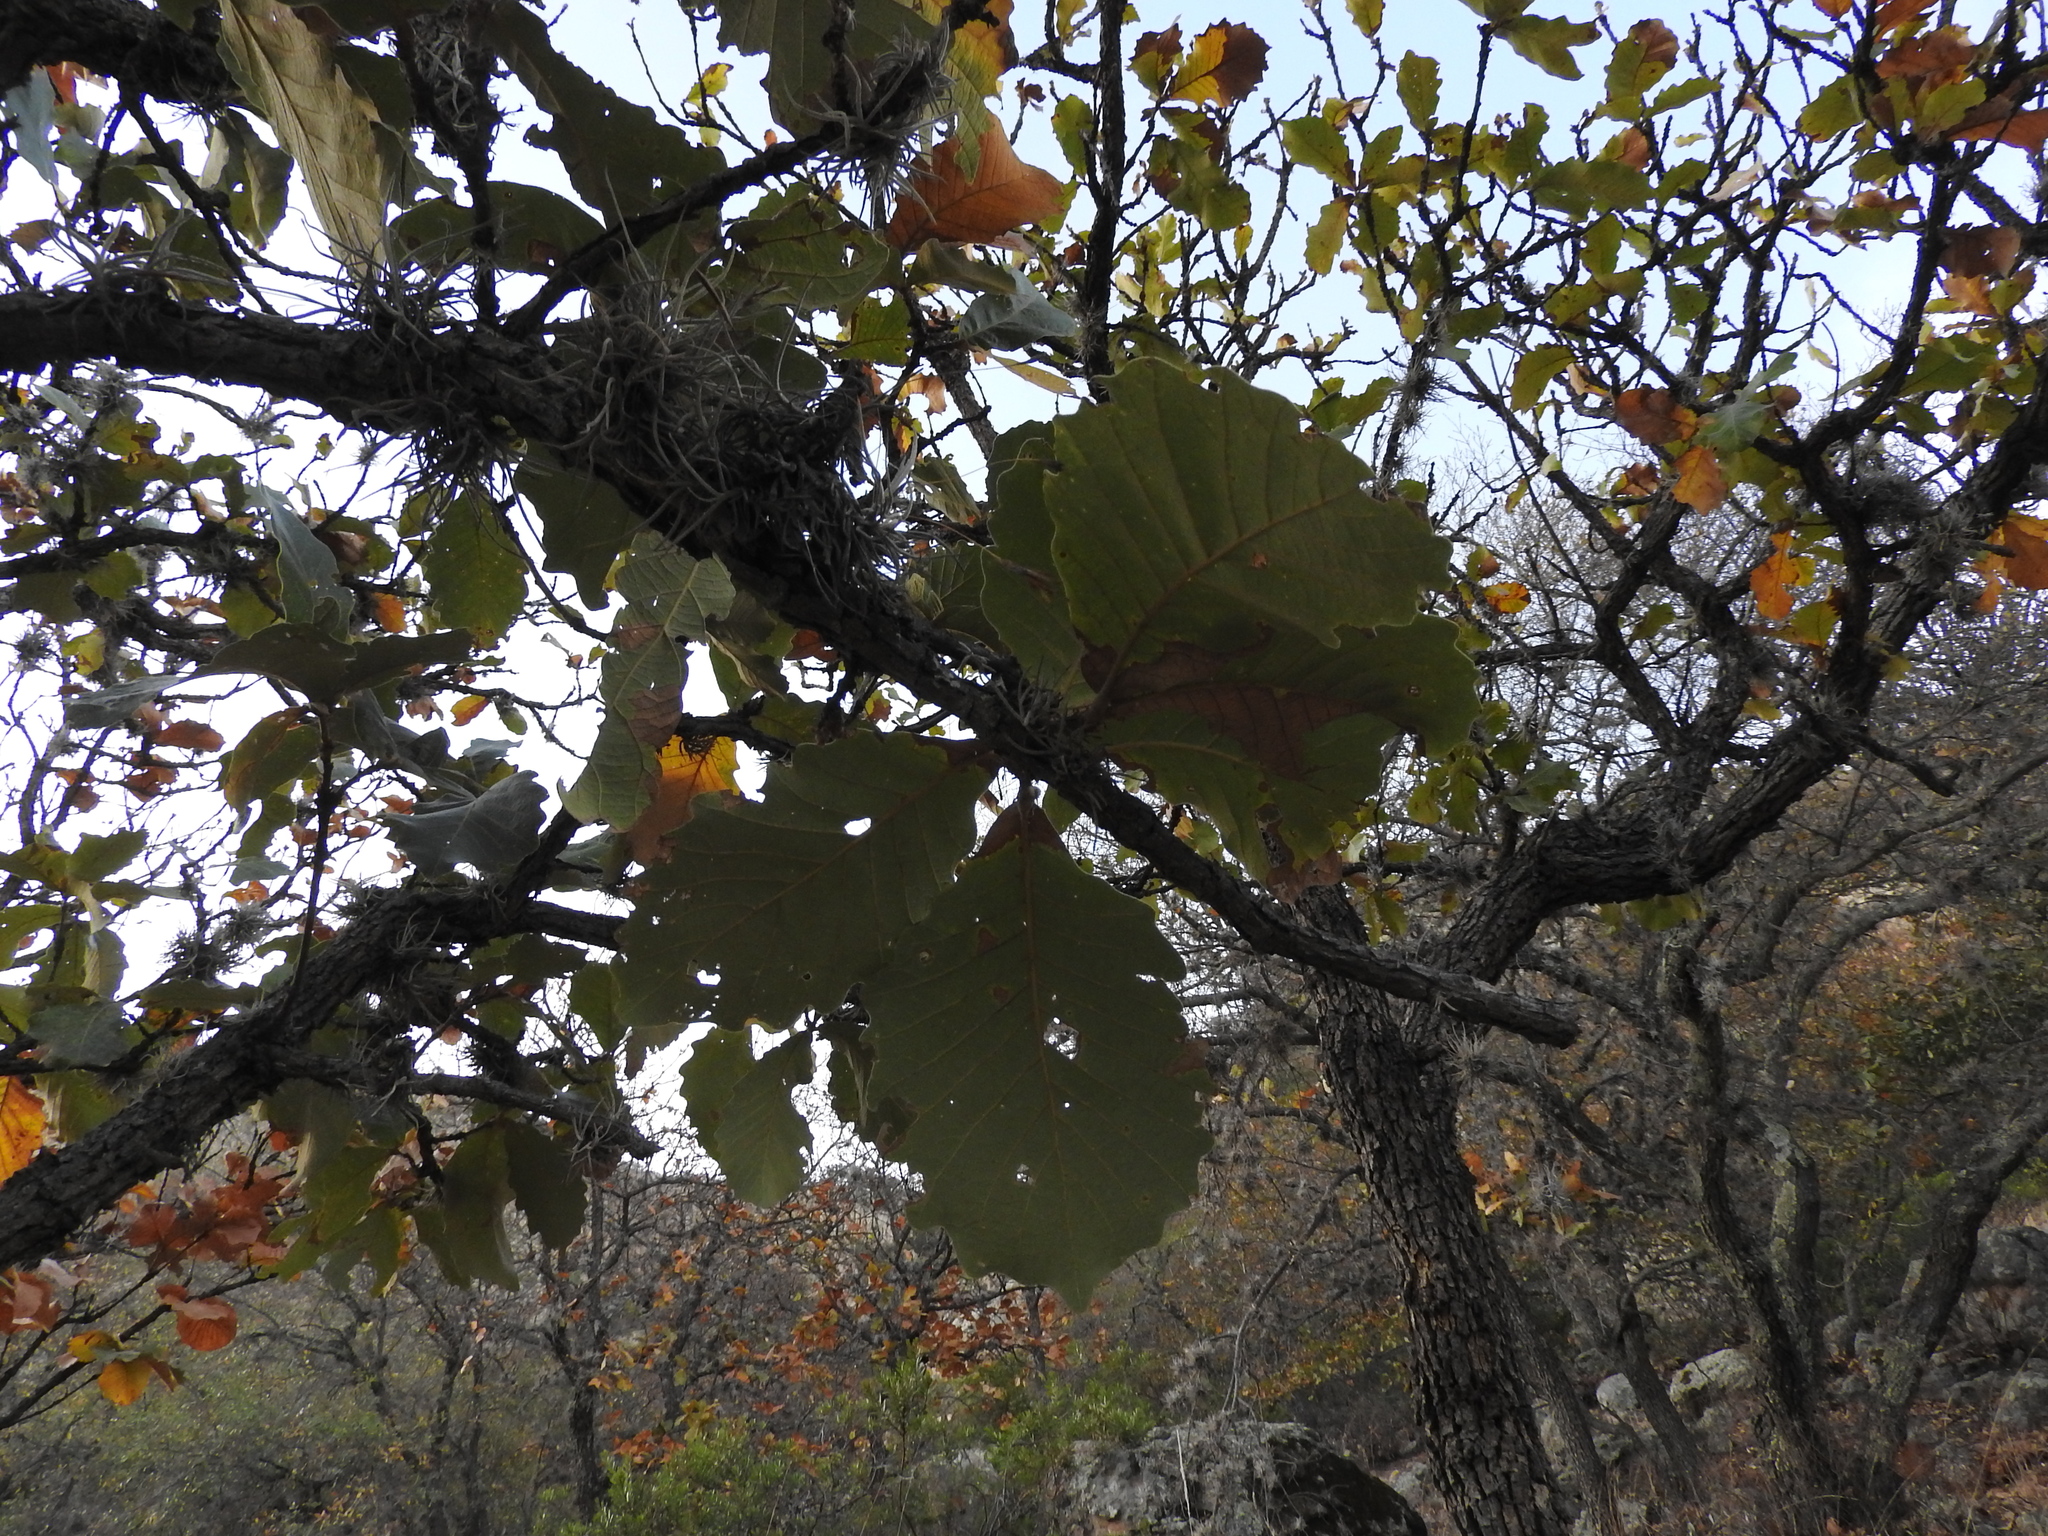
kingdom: Plantae
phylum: Tracheophyta
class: Magnoliopsida
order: Fagales
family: Fagaceae
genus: Quercus
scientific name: Quercus resinosa
